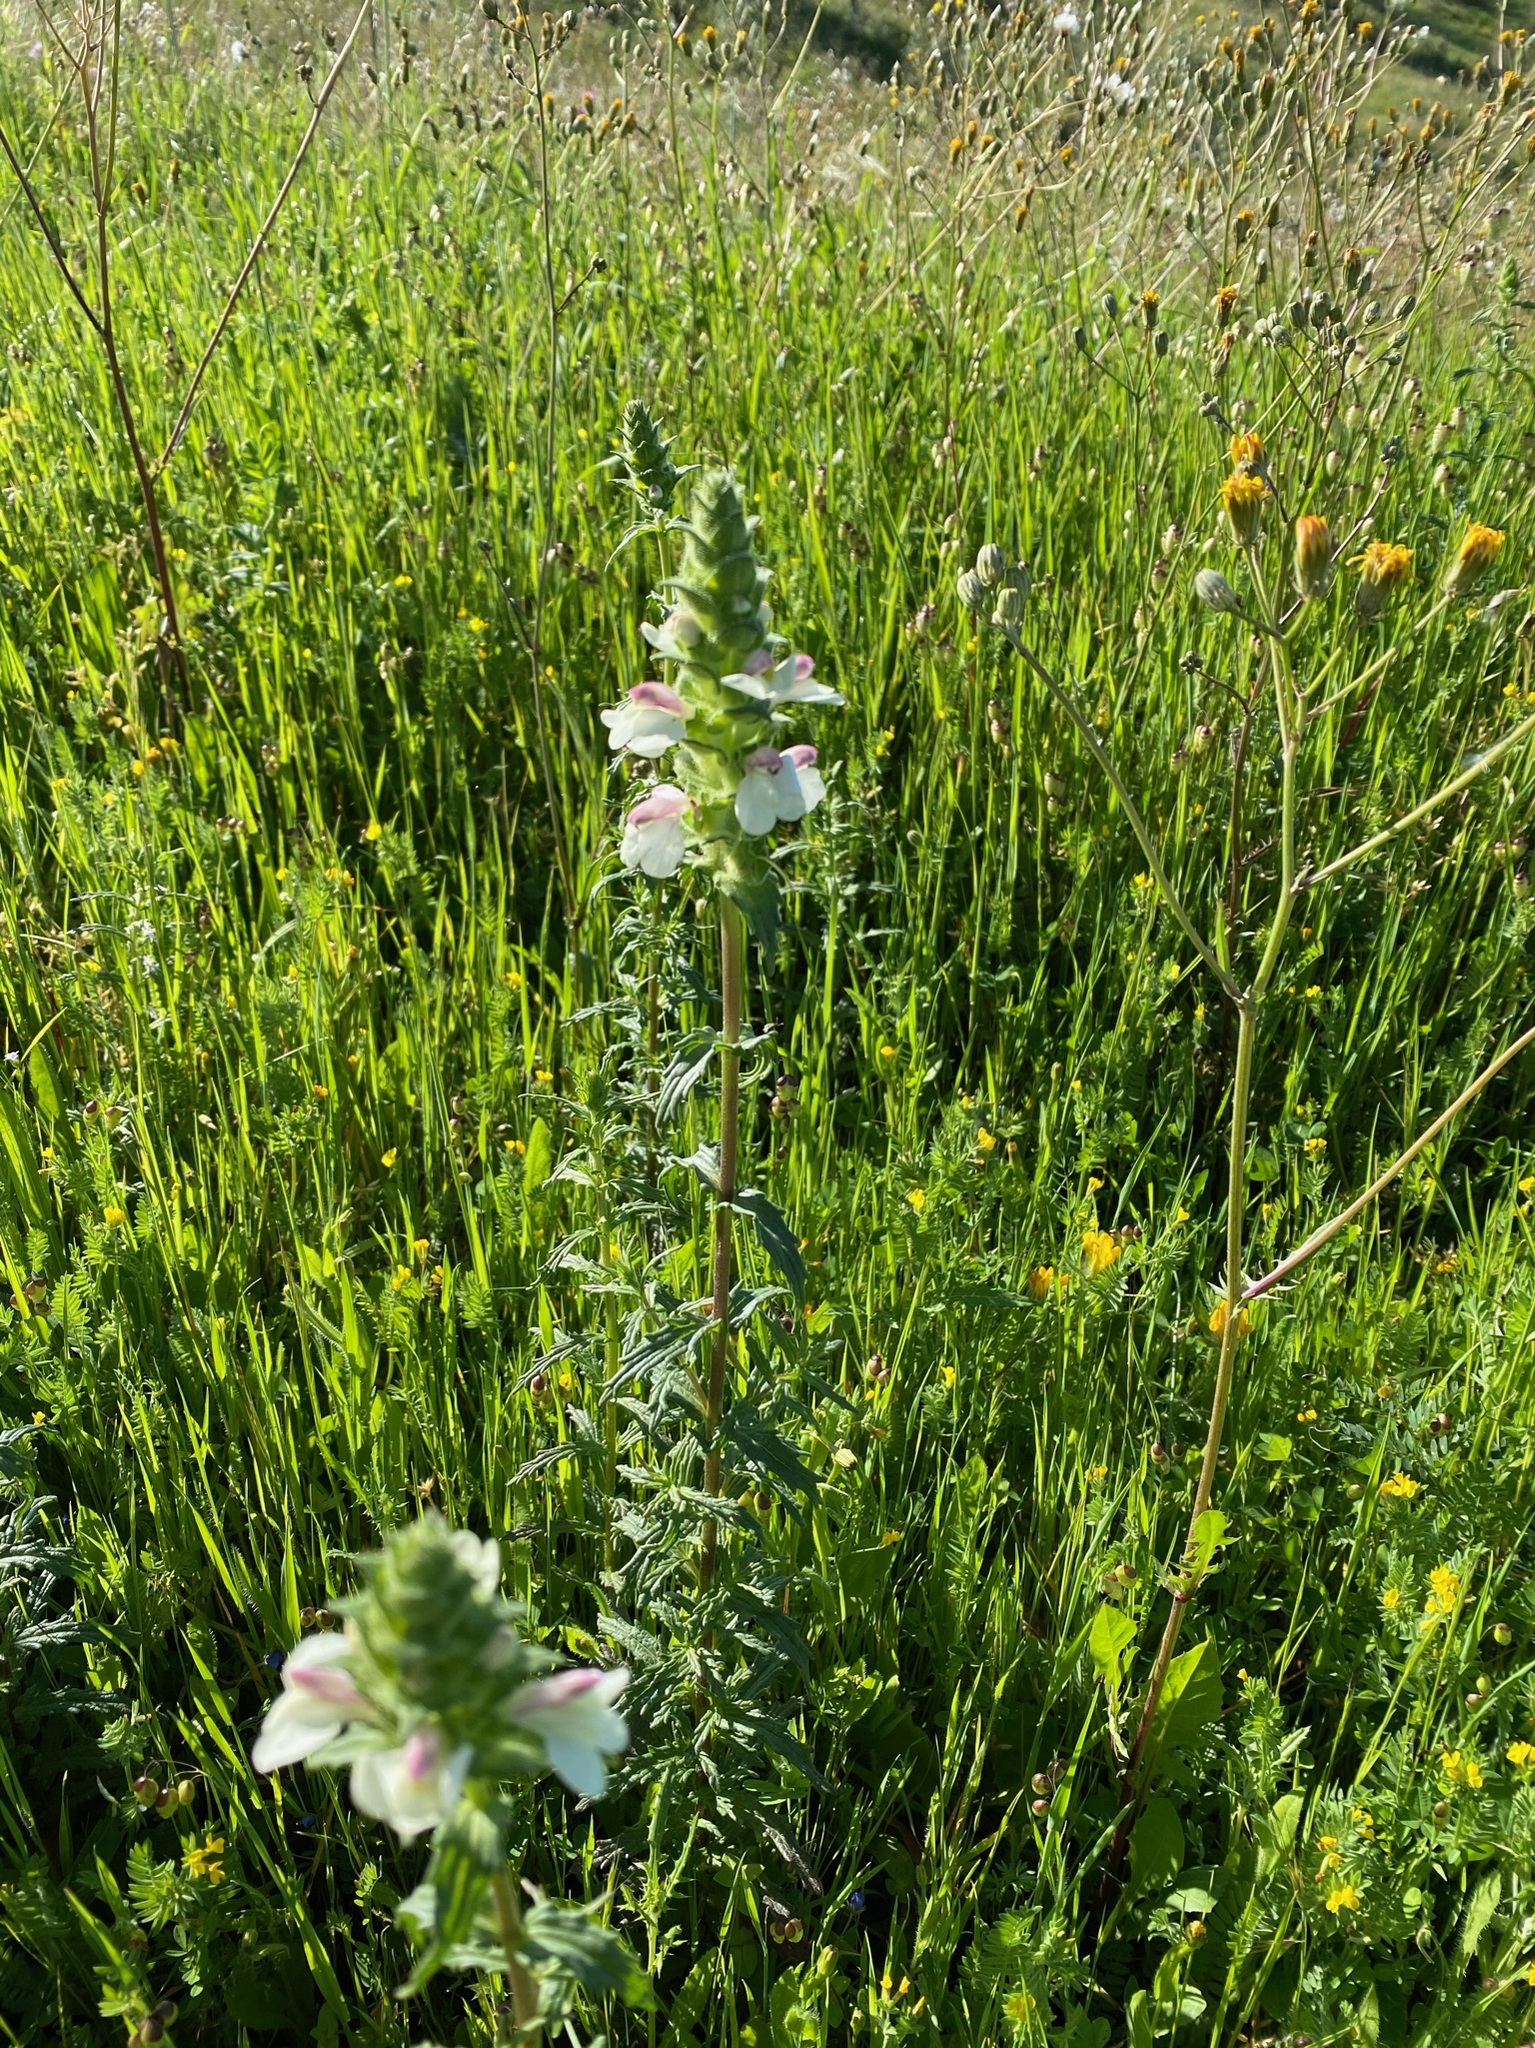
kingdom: Plantae
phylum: Tracheophyta
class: Magnoliopsida
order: Lamiales
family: Orobanchaceae
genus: Bellardia
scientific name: Bellardia trixago
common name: Mediterranean lineseed
